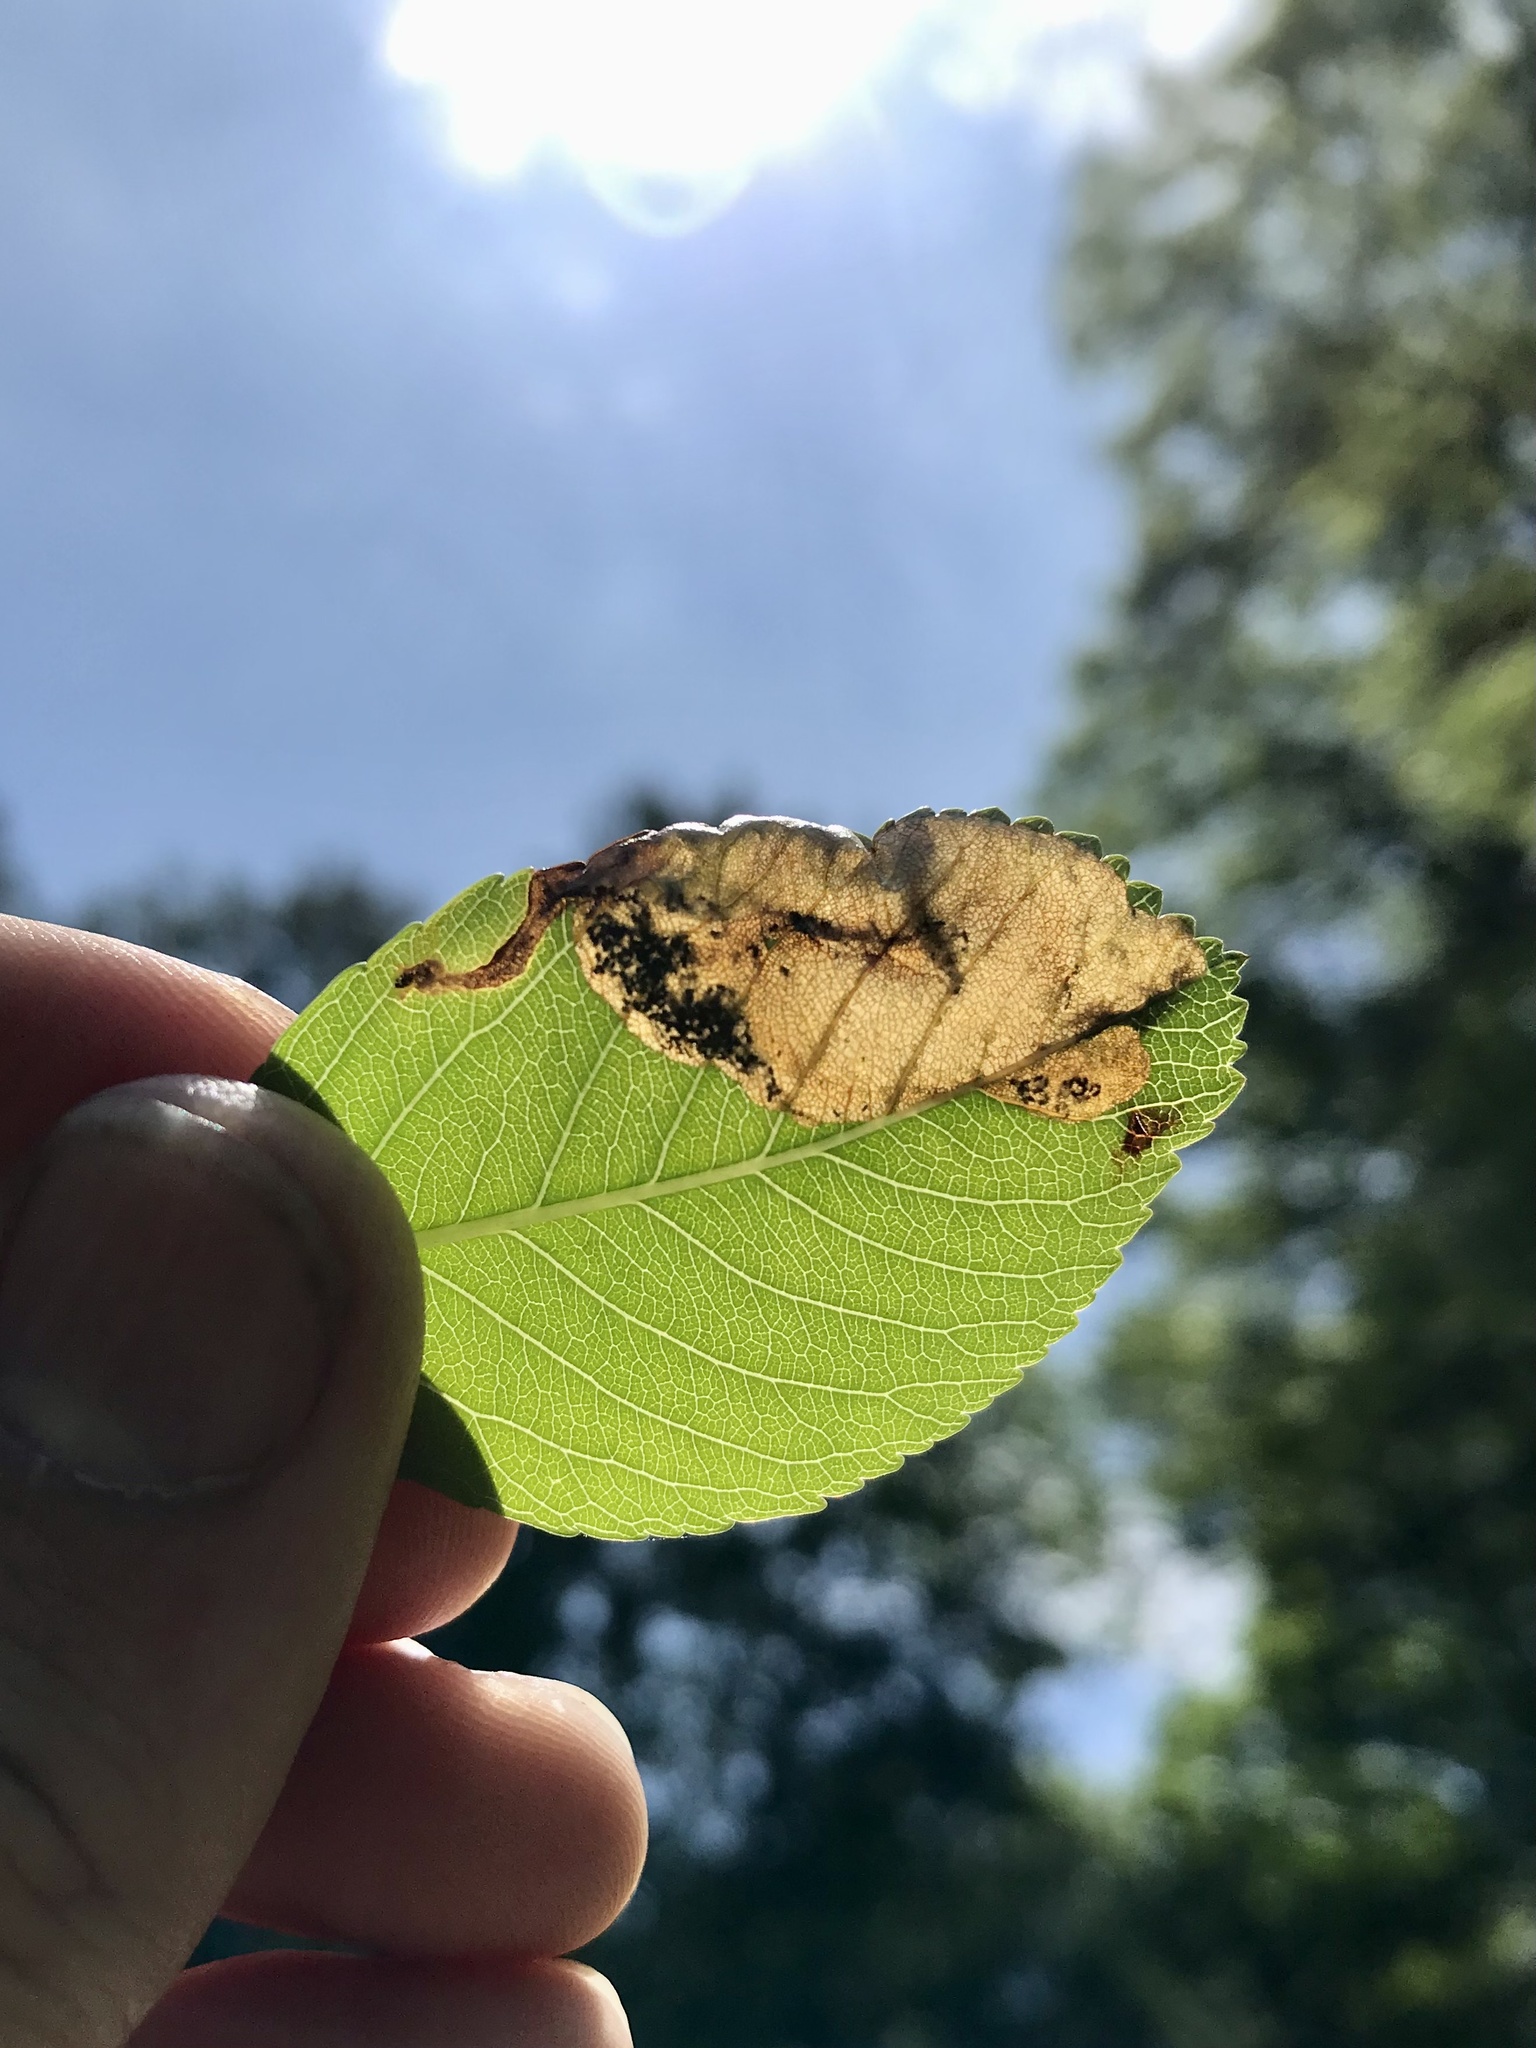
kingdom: Animalia
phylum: Arthropoda
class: Insecta
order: Hymenoptera
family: Tenthredinidae
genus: Profenusa
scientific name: Profenusa
